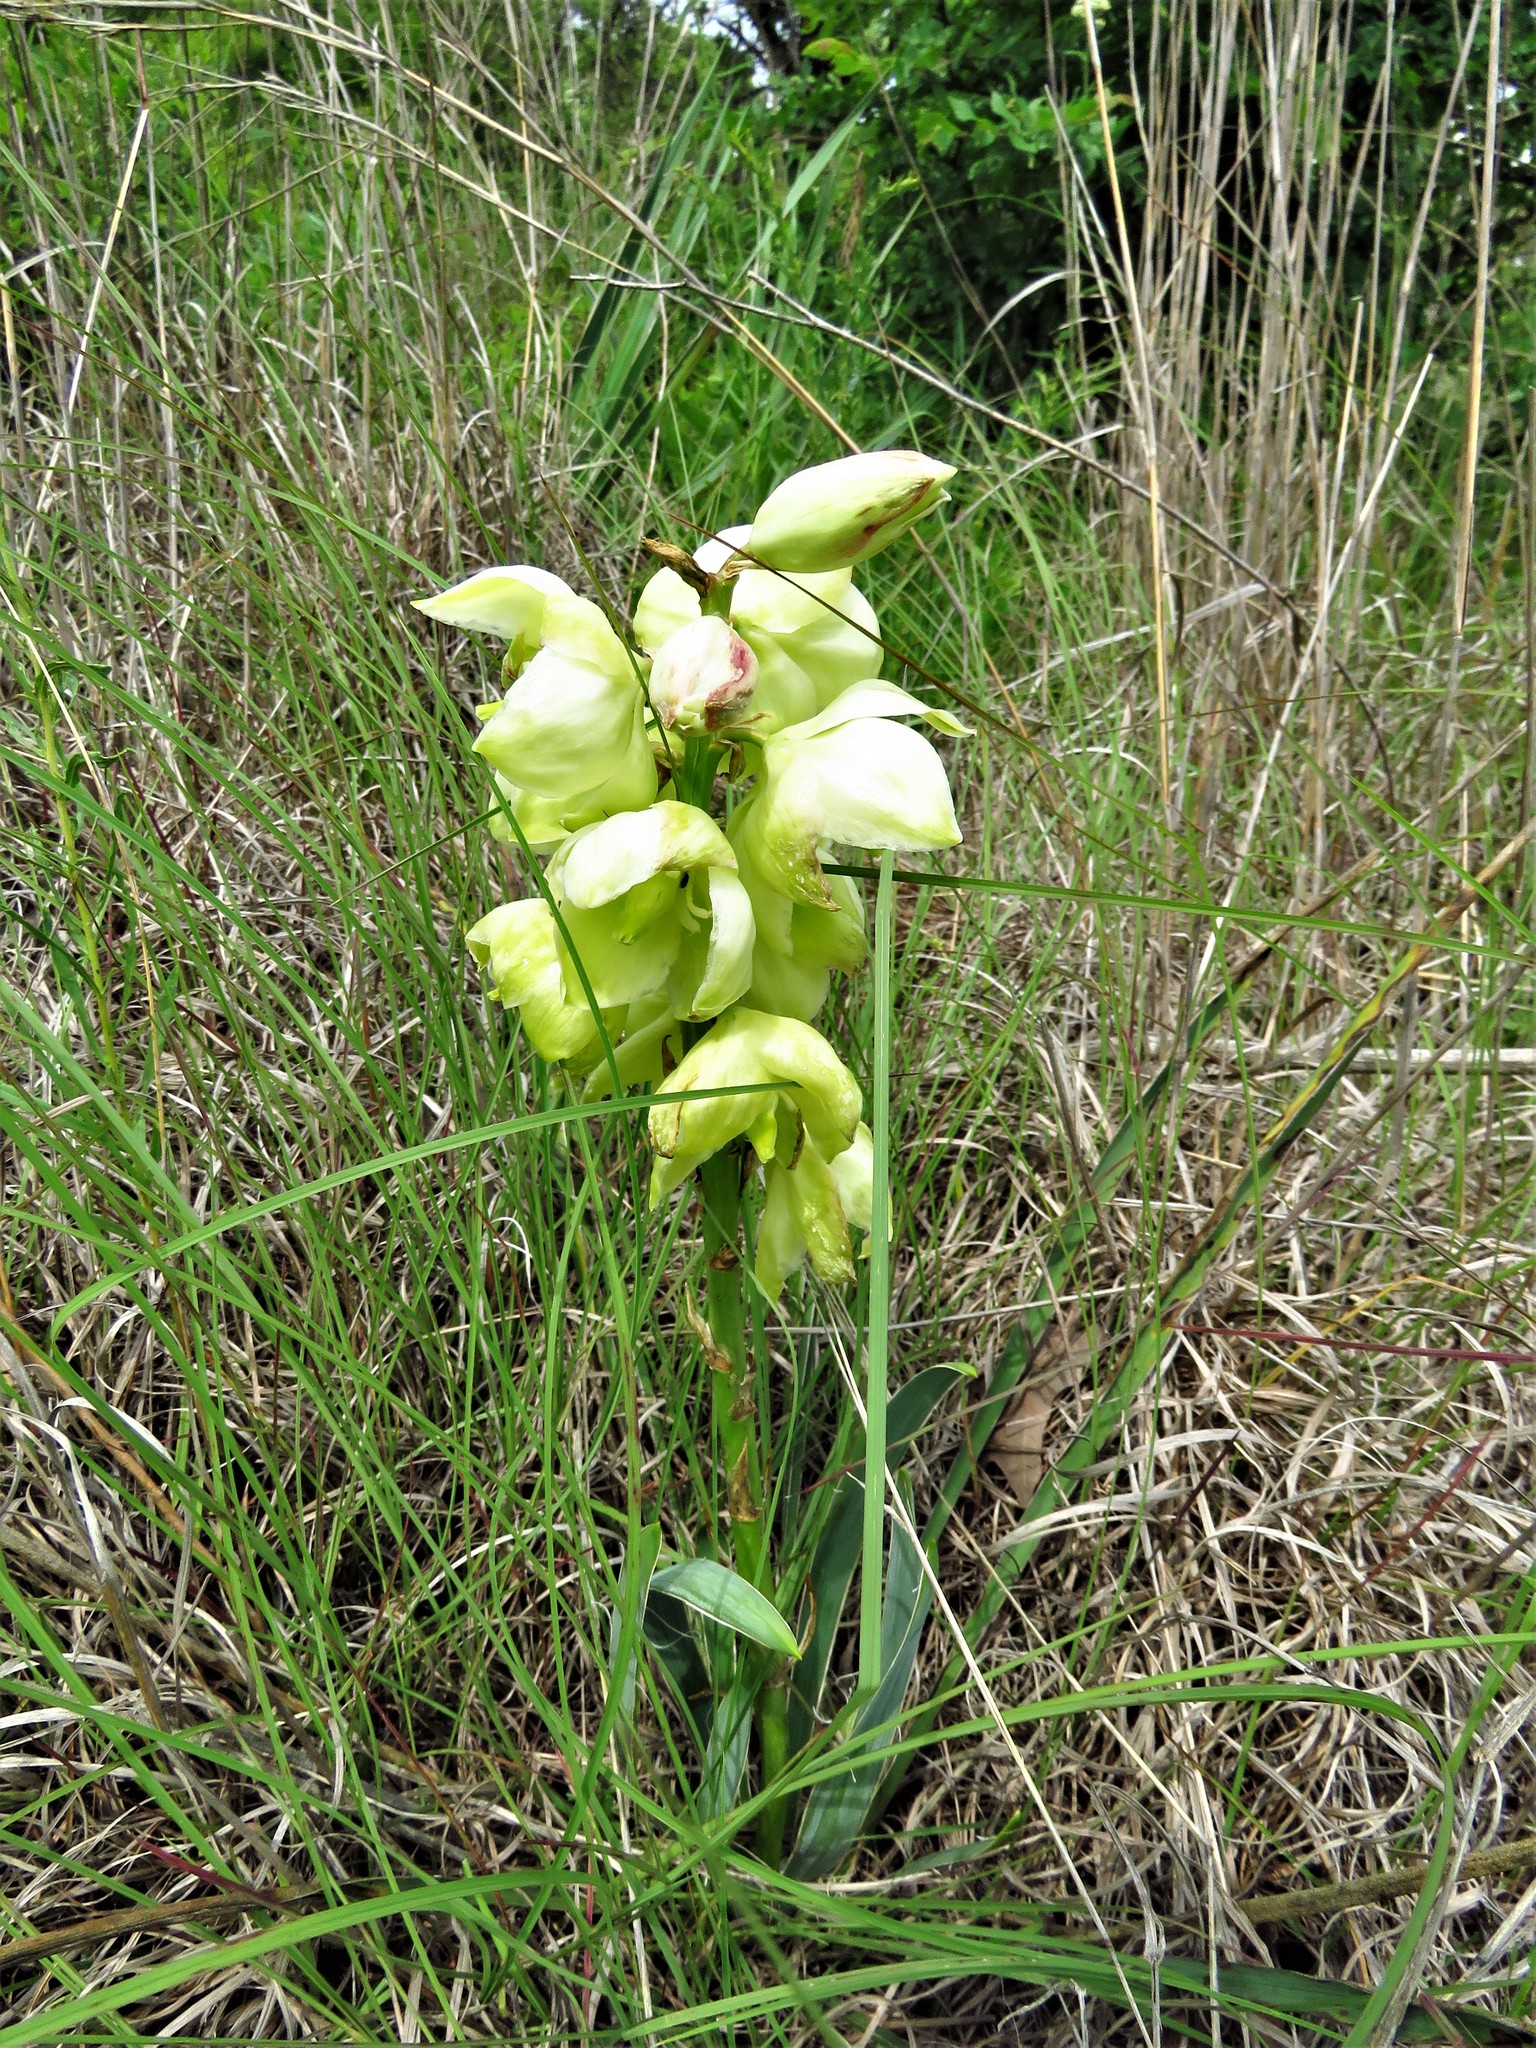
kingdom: Plantae
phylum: Tracheophyta
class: Liliopsida
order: Asparagales
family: Asparagaceae
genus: Yucca
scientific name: Yucca arkansana
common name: Arkansas yucca
